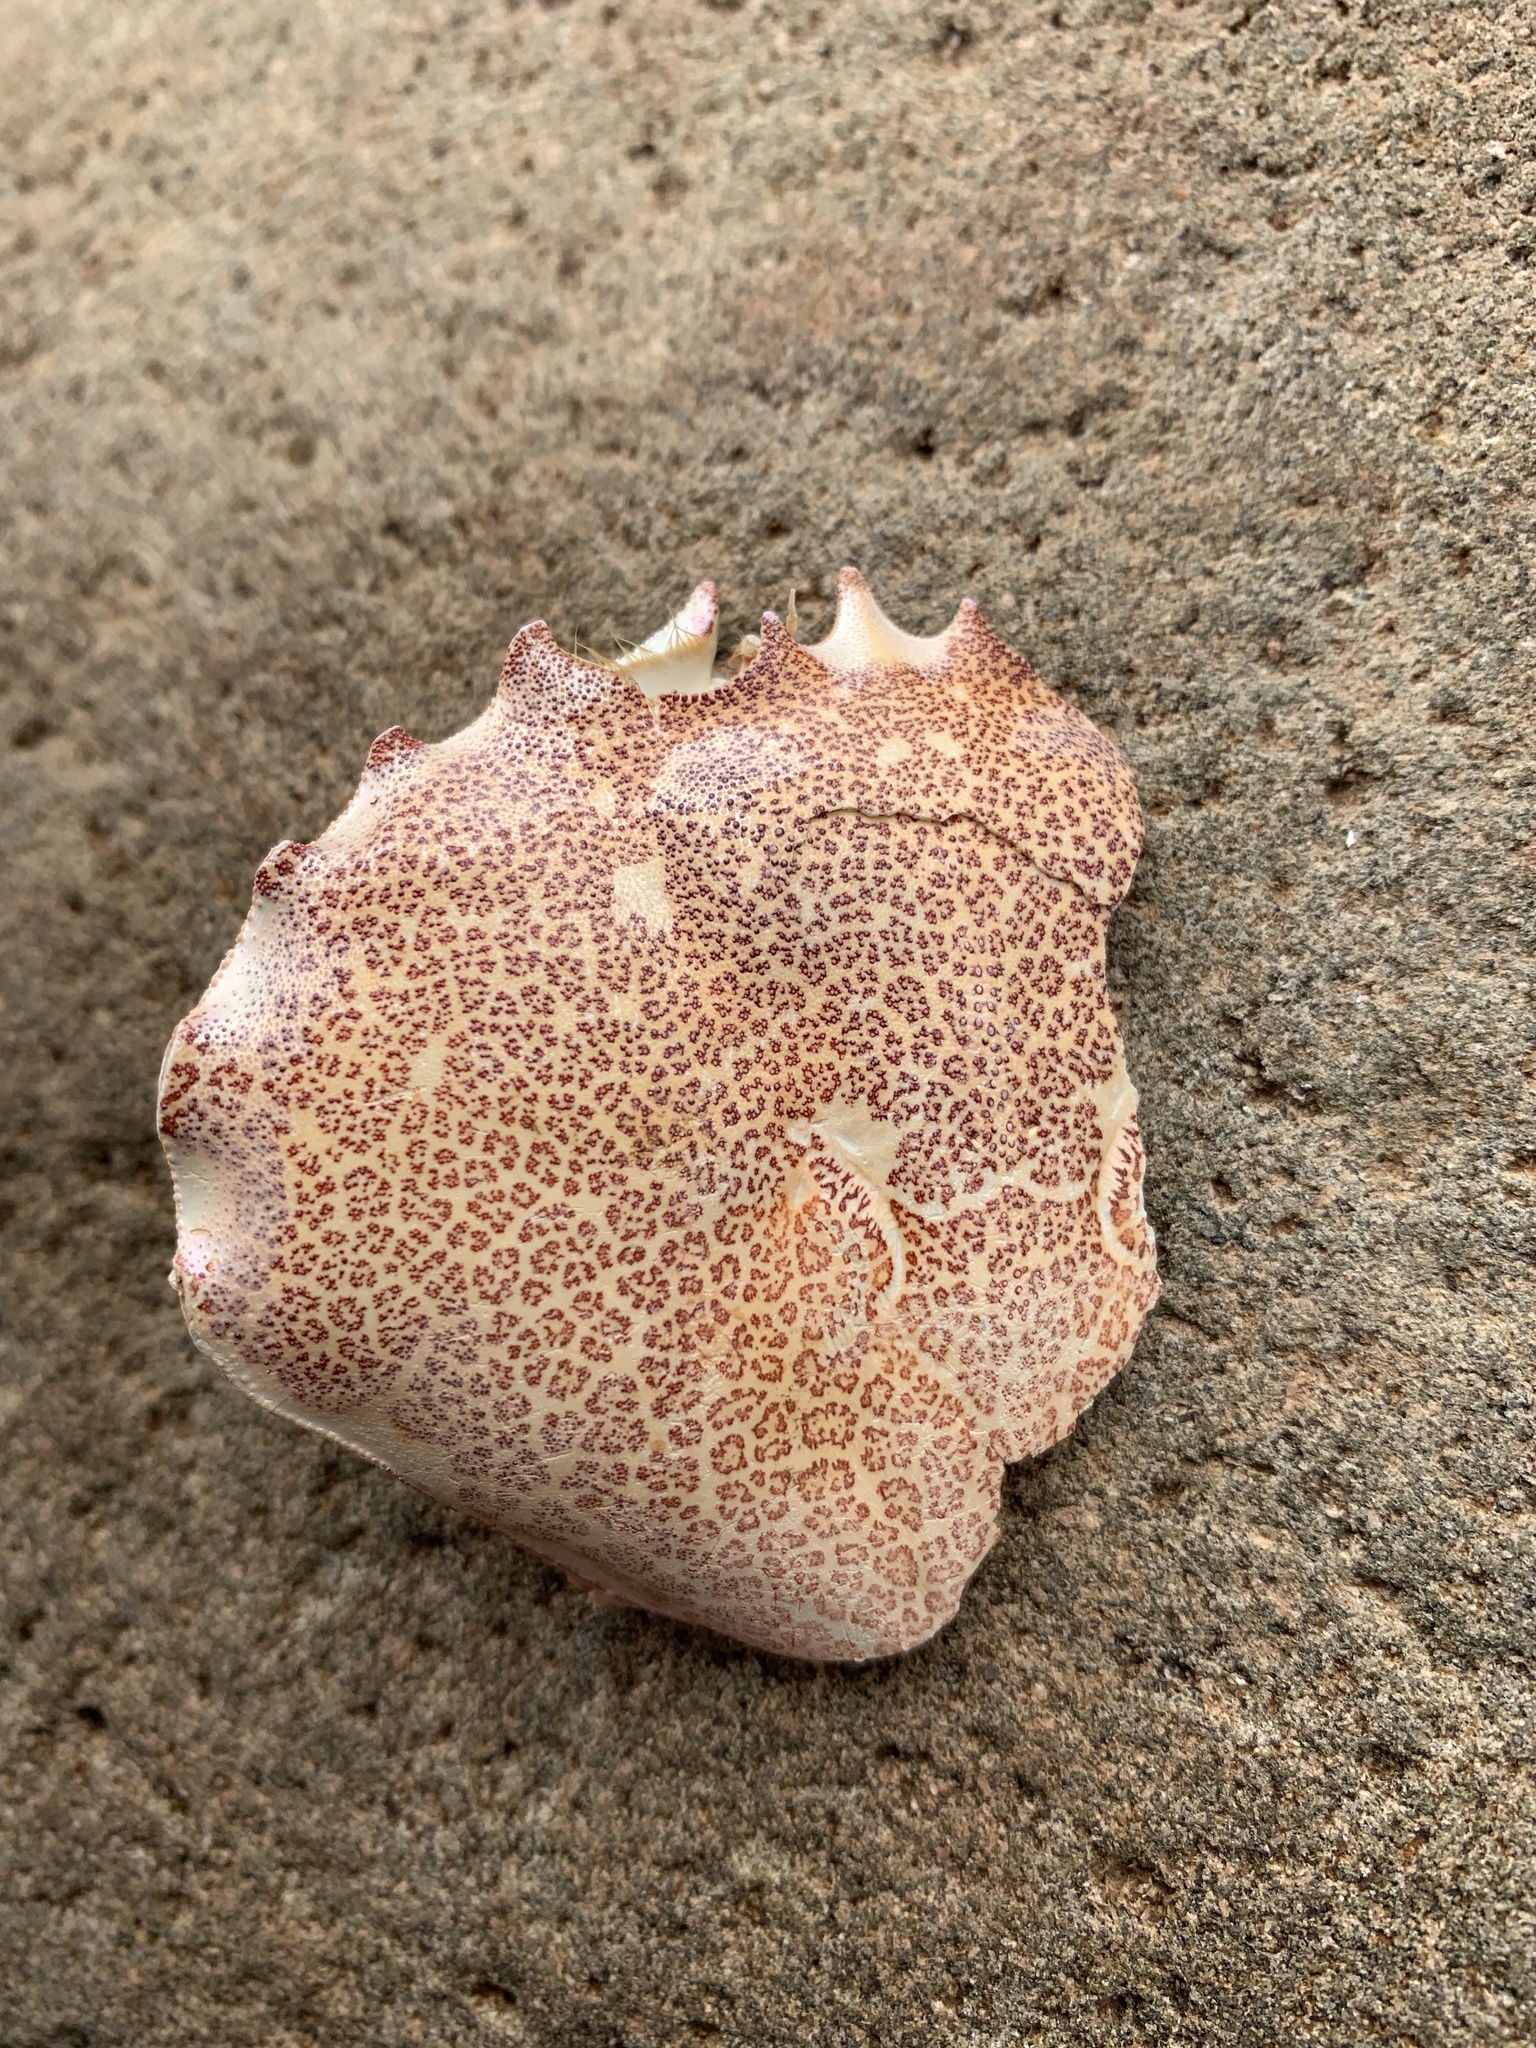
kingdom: Animalia
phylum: Arthropoda
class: Malacostraca
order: Decapoda
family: Ovalipidae
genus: Ovalipes
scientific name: Ovalipes ocellatus
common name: Lady crab
